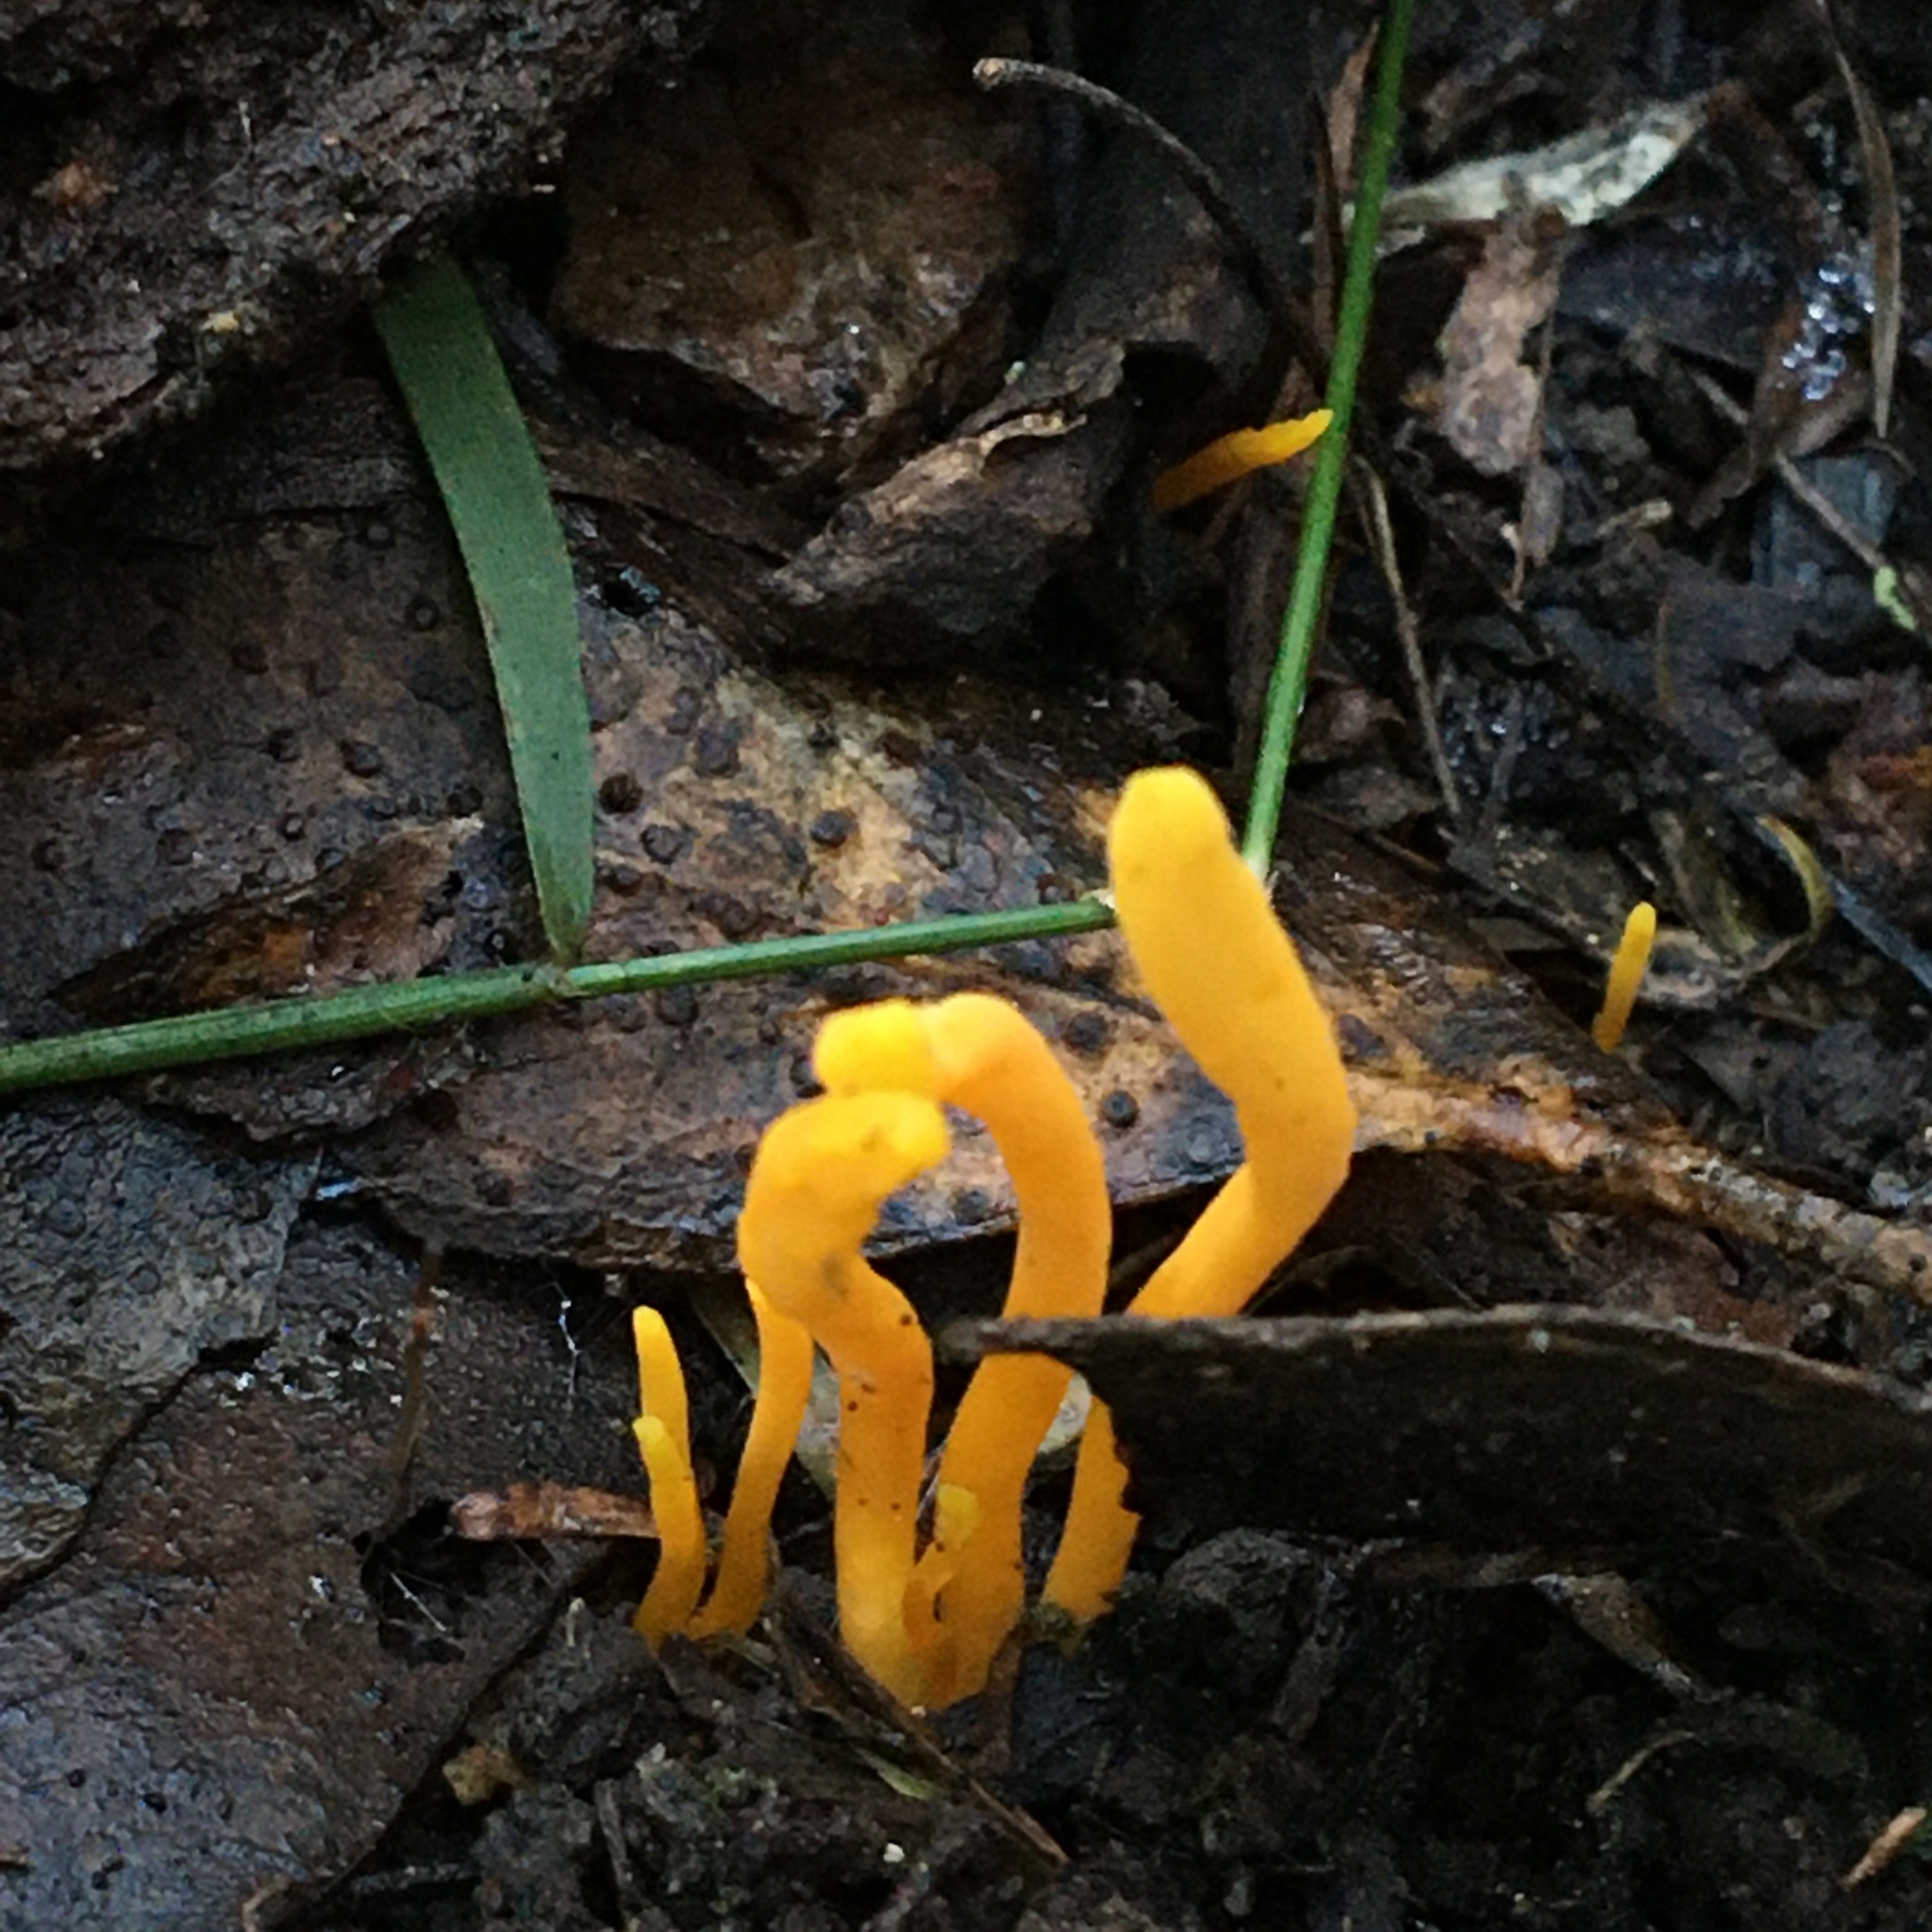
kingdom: Fungi
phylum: Basidiomycota
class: Agaricomycetes
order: Agaricales
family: Clavariaceae
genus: Clavulinopsis
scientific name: Clavulinopsis amoena
